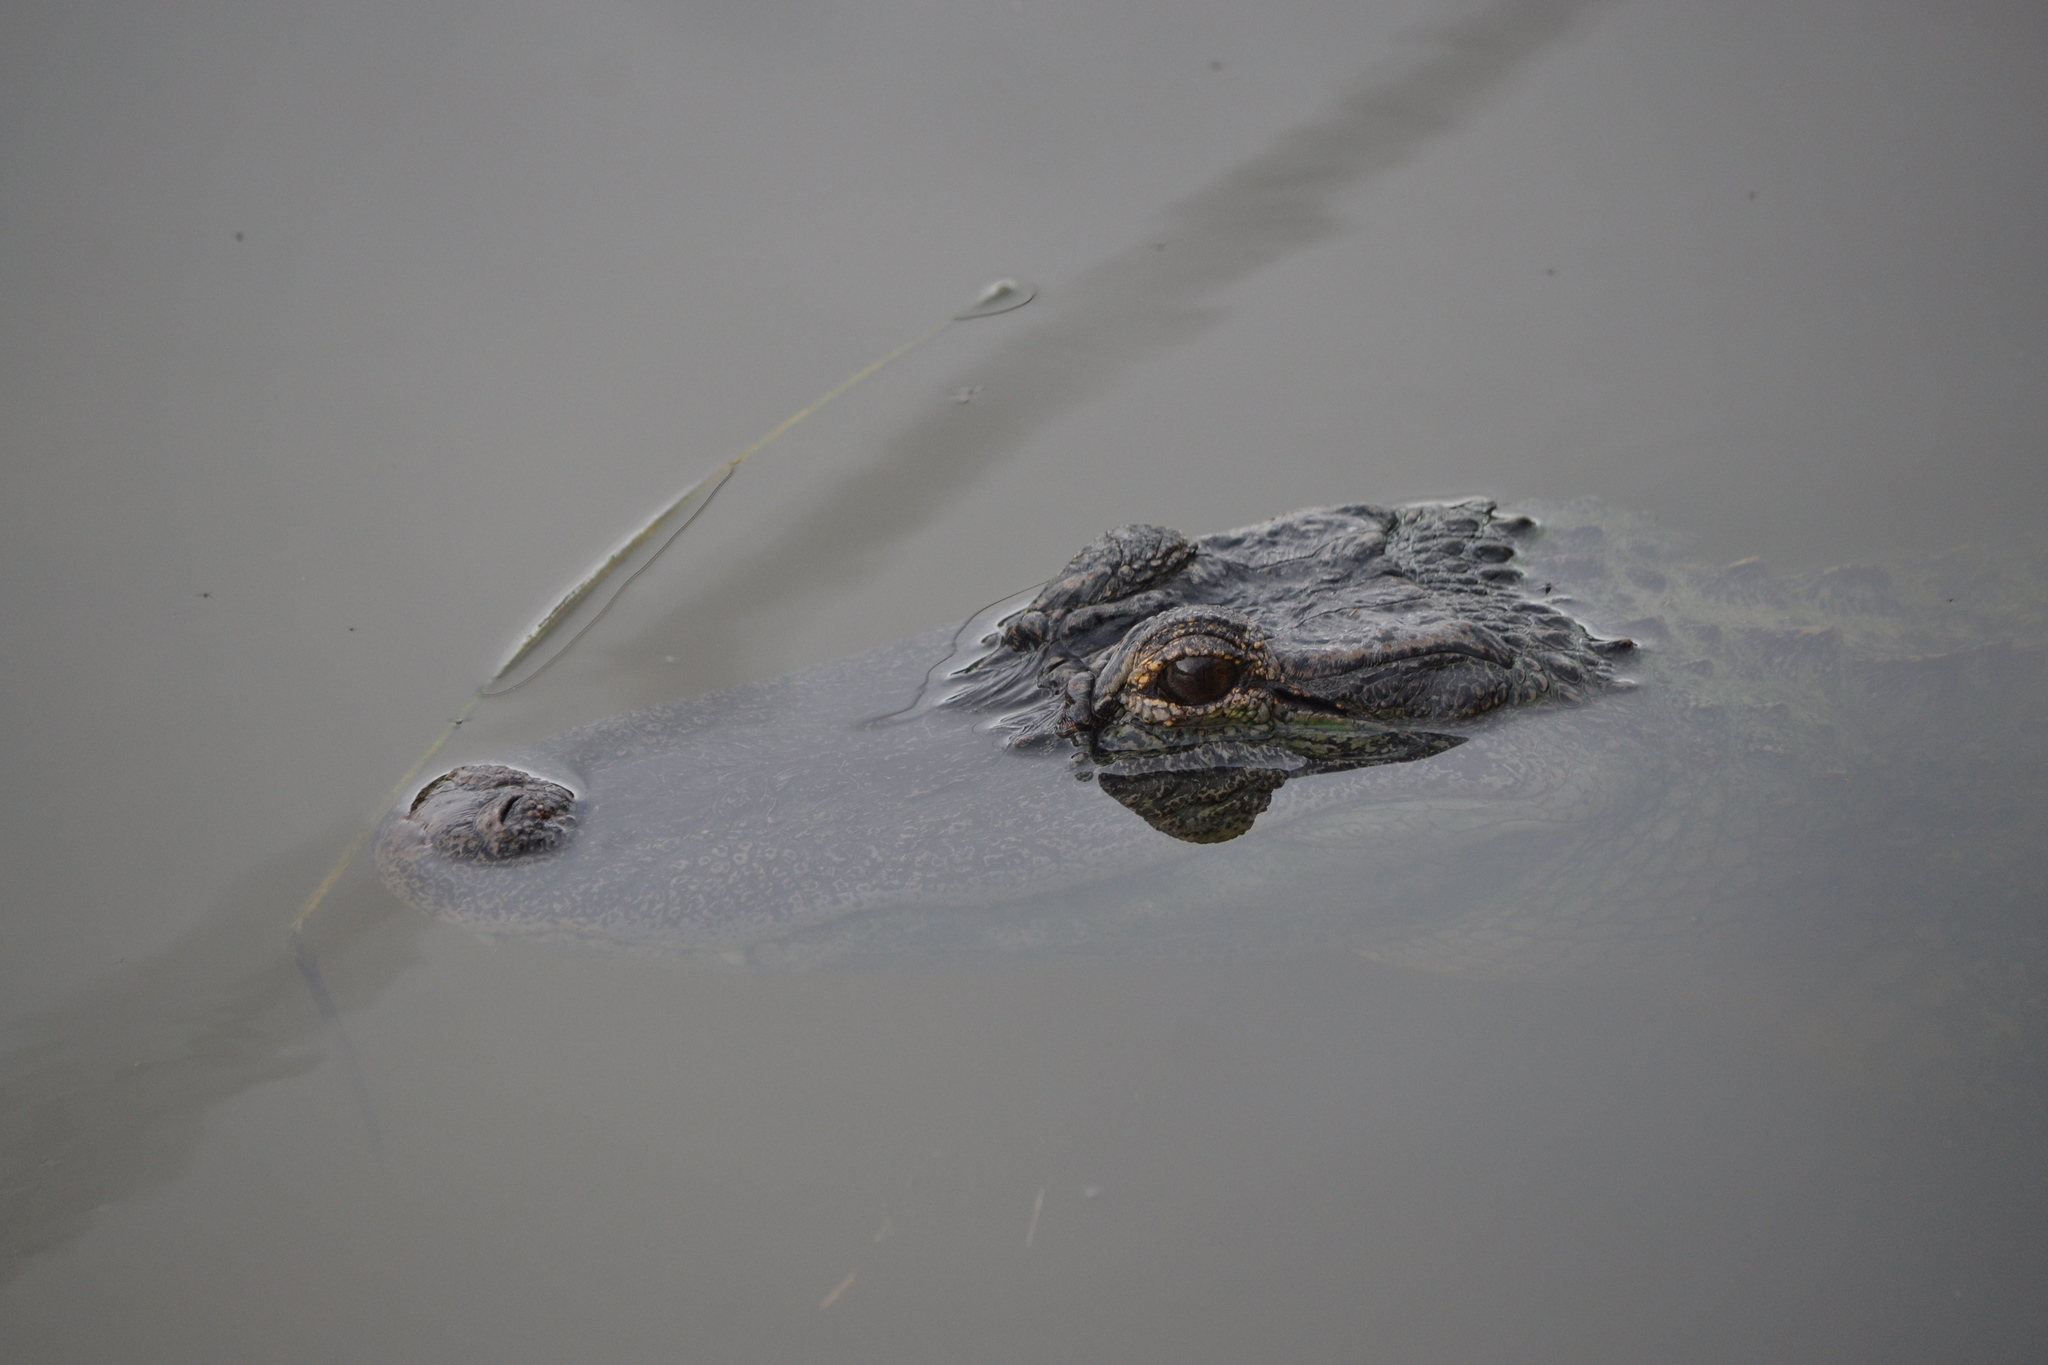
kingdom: Animalia
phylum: Chordata
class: Crocodylia
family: Alligatoridae
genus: Alligator
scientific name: Alligator mississippiensis
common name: American alligator
